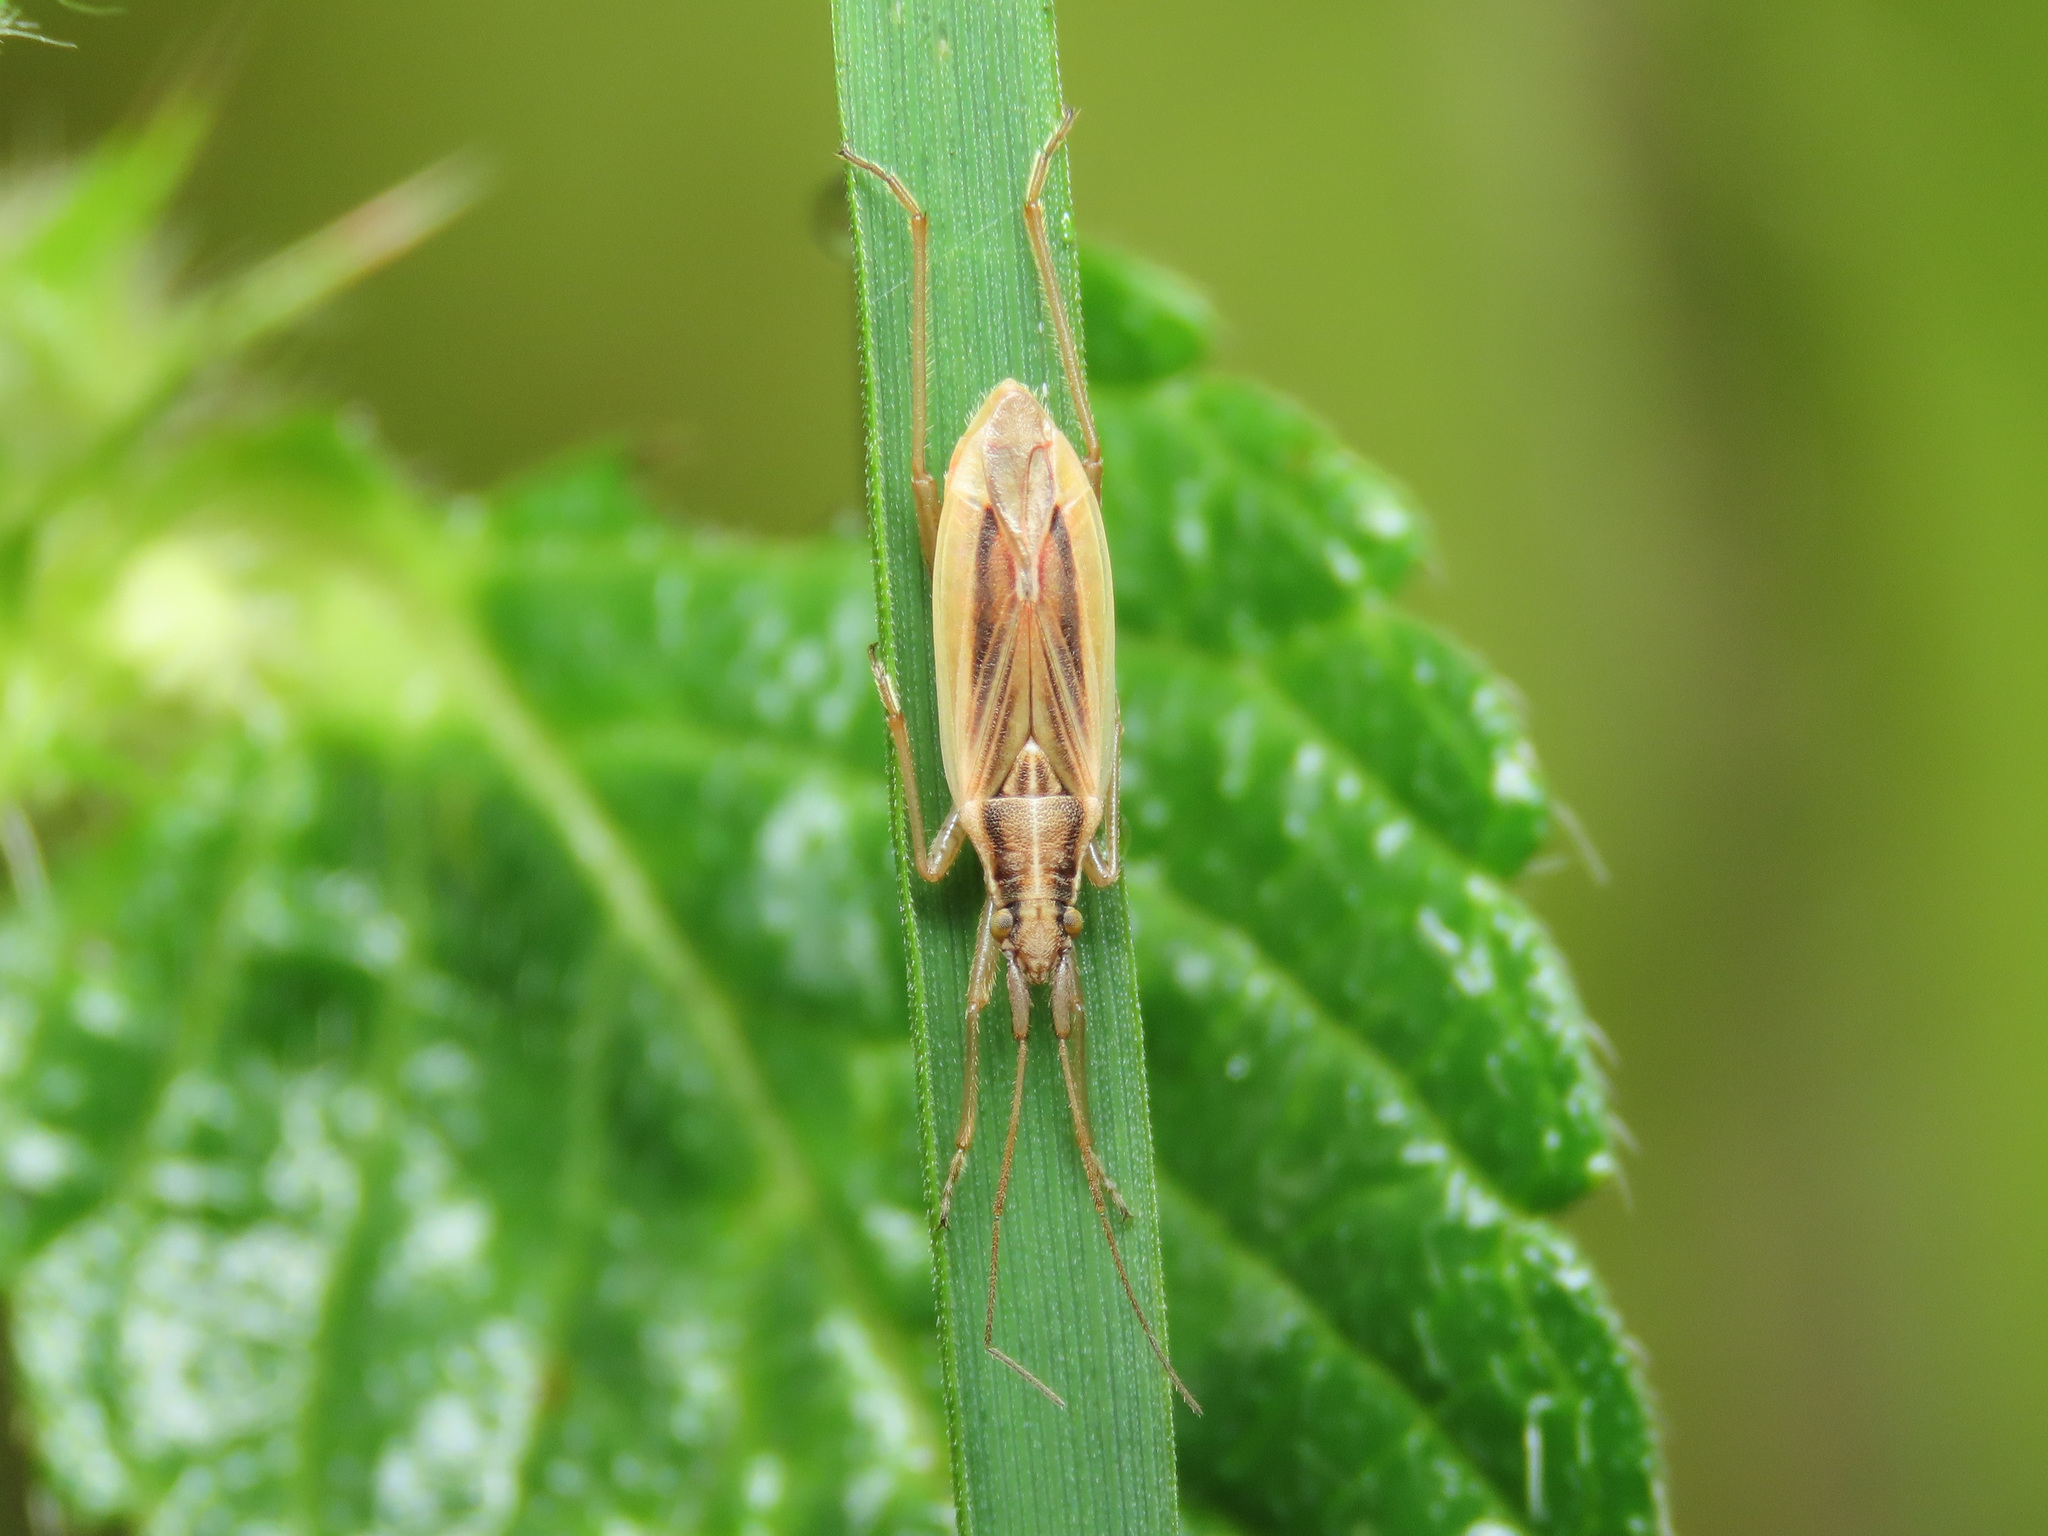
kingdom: Animalia
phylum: Arthropoda
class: Insecta
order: Hemiptera
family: Miridae
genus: Stenodema
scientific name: Stenodema holsata
